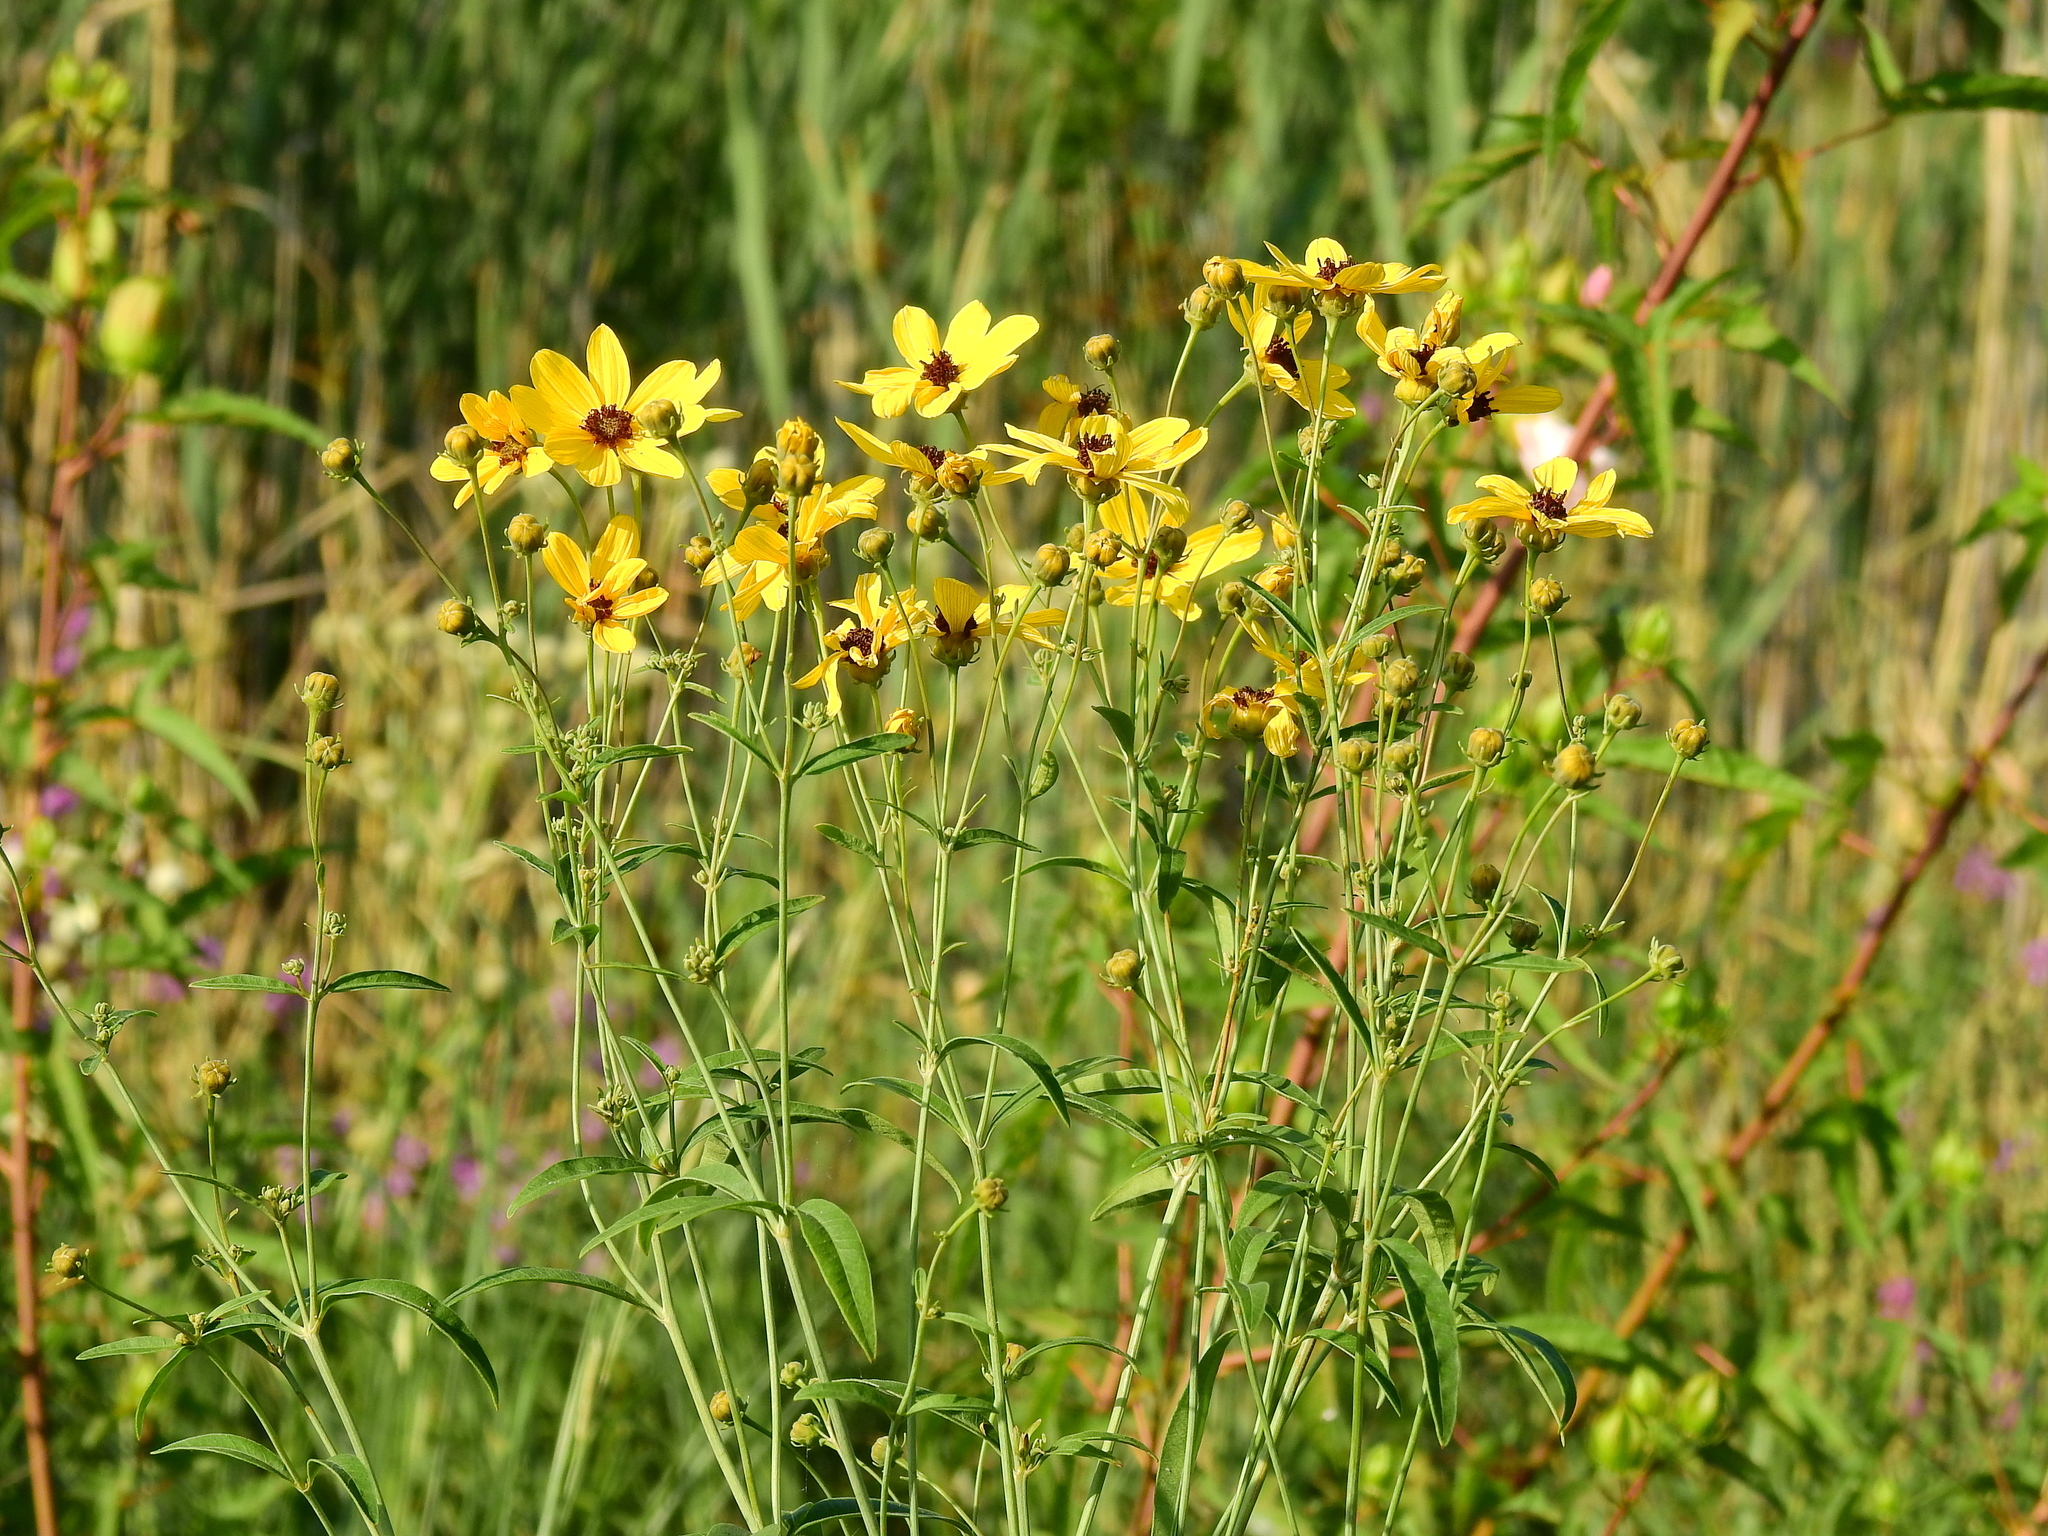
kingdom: Plantae
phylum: Tracheophyta
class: Magnoliopsida
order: Asterales
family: Asteraceae
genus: Coreopsis
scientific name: Coreopsis tripteris
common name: Tall coreopsis
